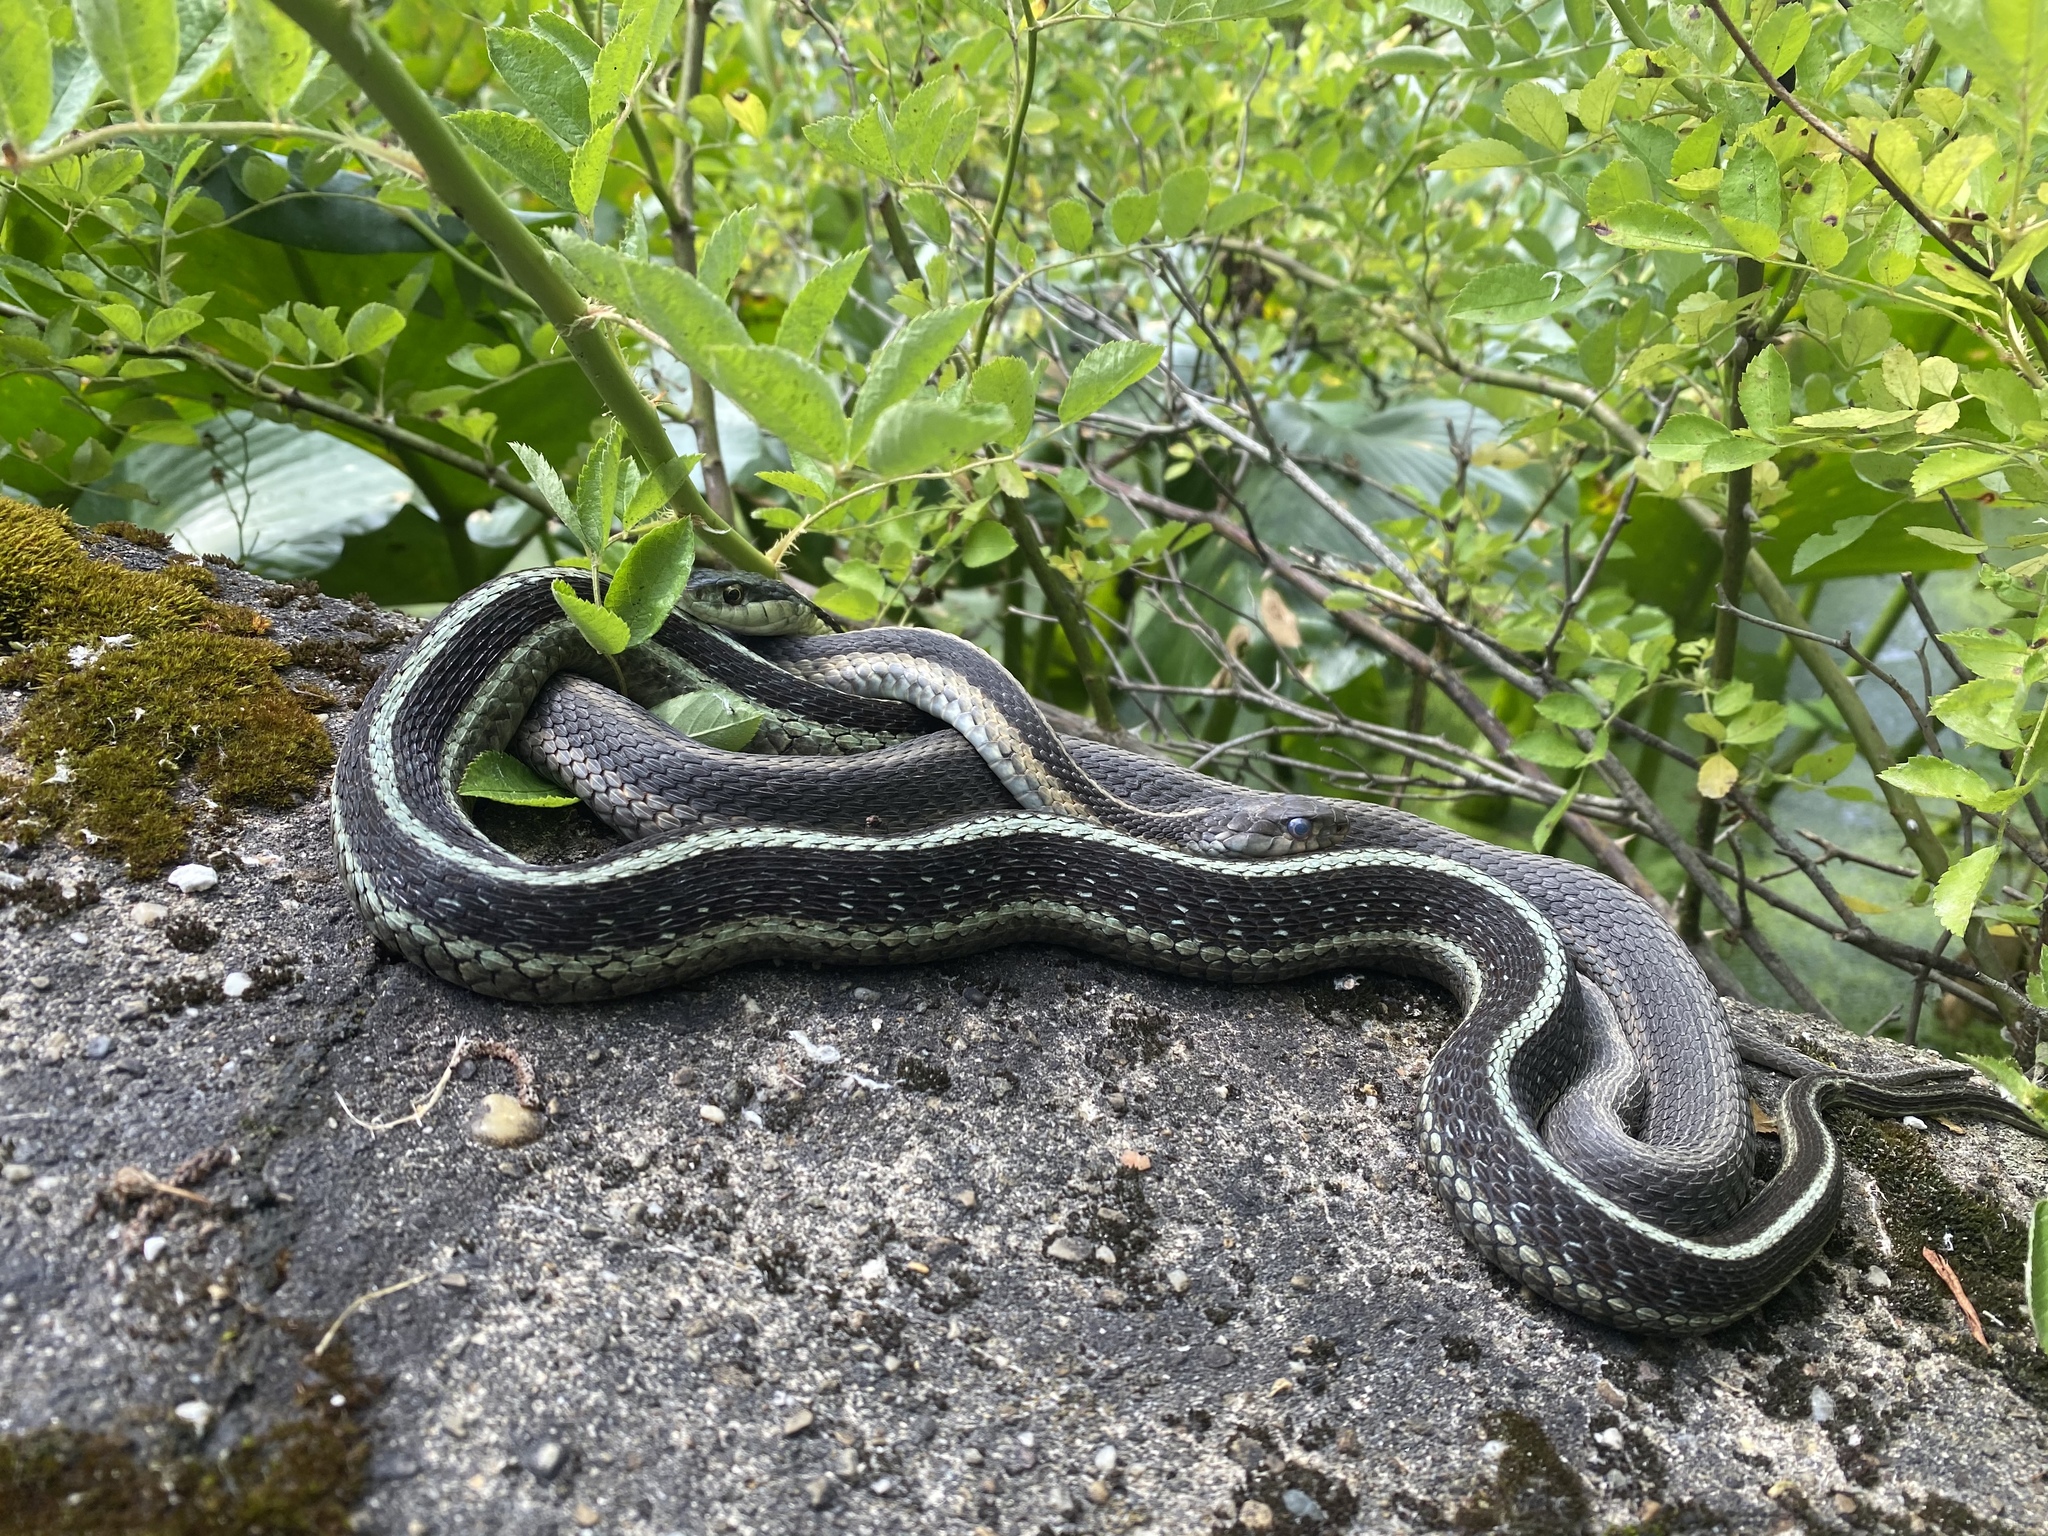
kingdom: Animalia
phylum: Chordata
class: Squamata
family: Colubridae
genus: Thamnophis
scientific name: Thamnophis sirtalis
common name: Common garter snake
